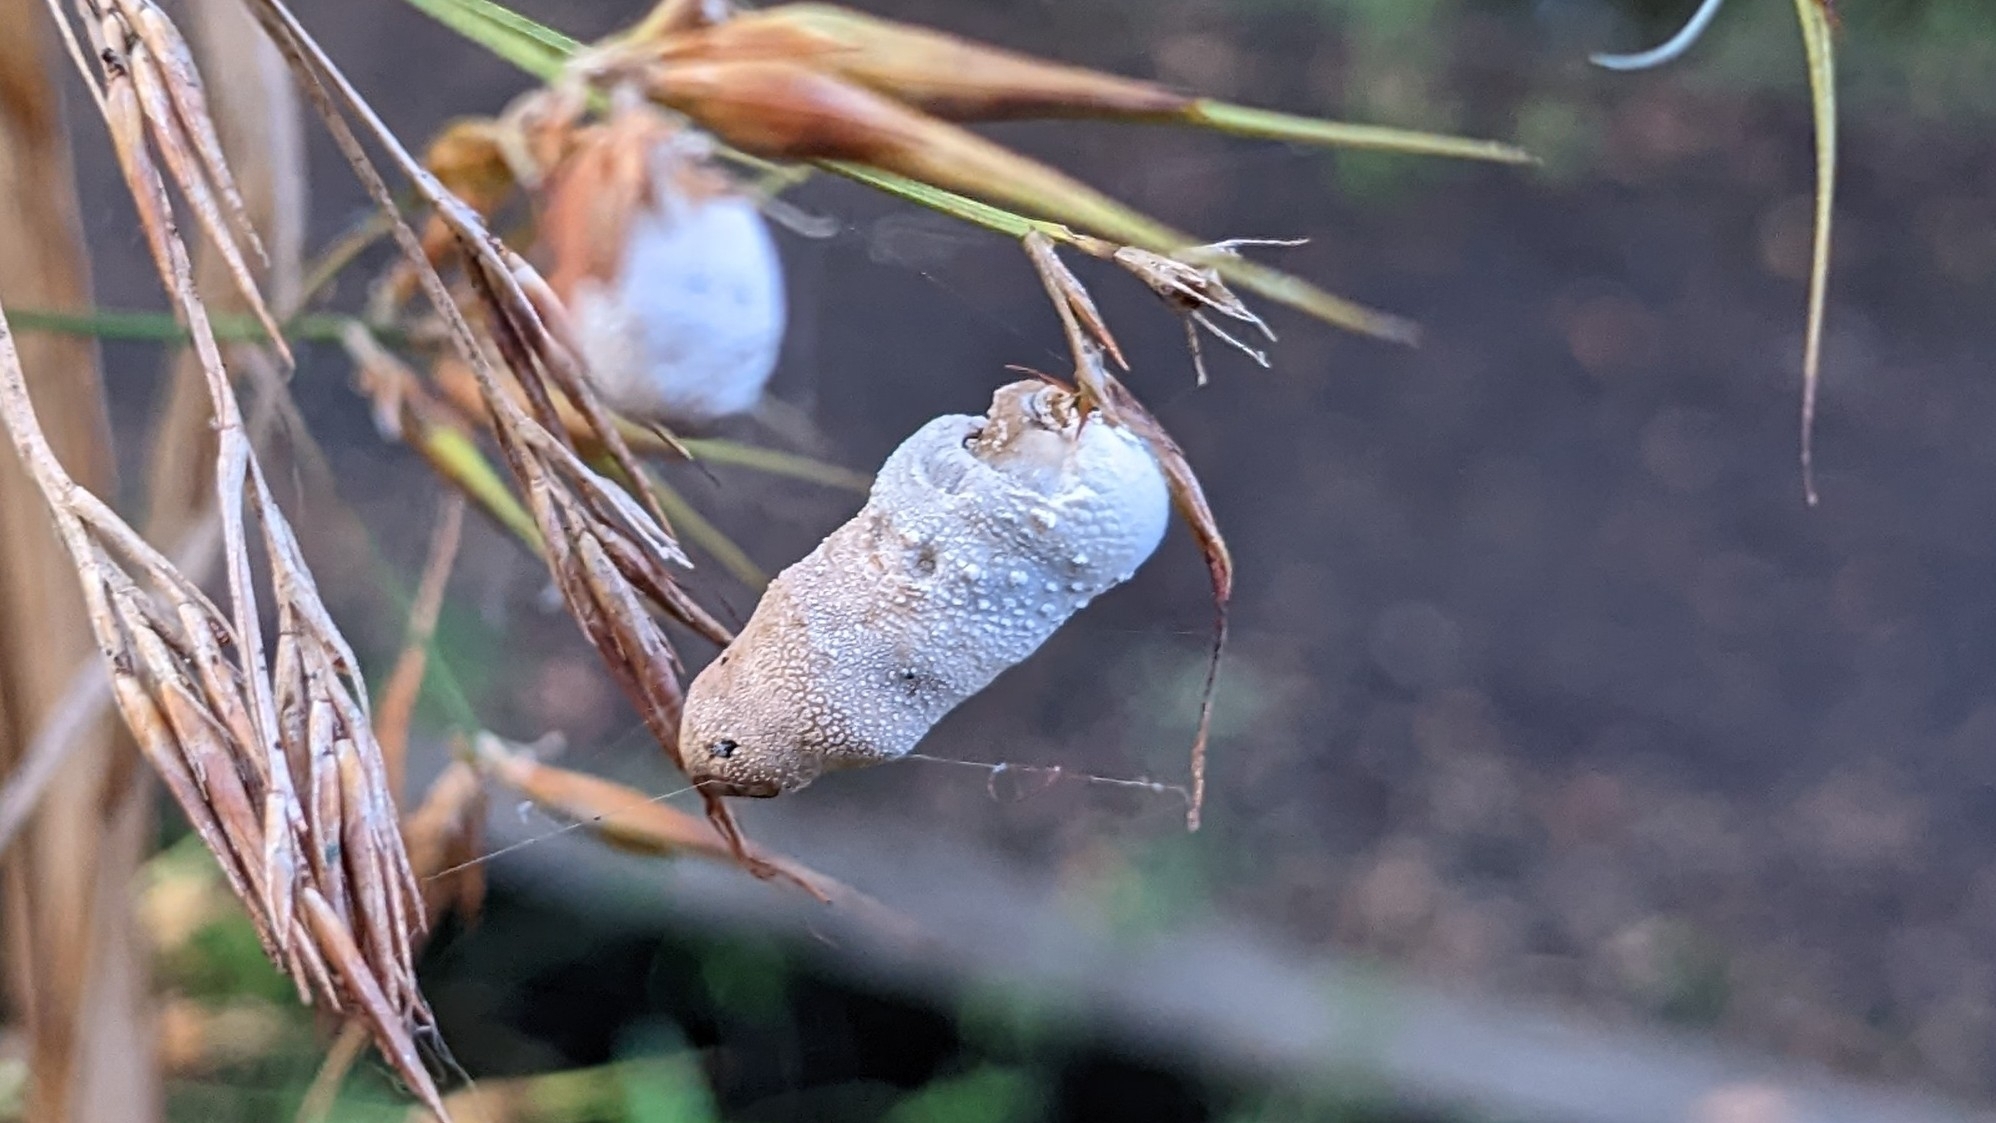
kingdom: Fungi
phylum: Basidiomycota
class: Ustilaginomycetes
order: Ustilaginales
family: Anthracoideaceae
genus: Testicularia
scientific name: Testicularia cyperi
